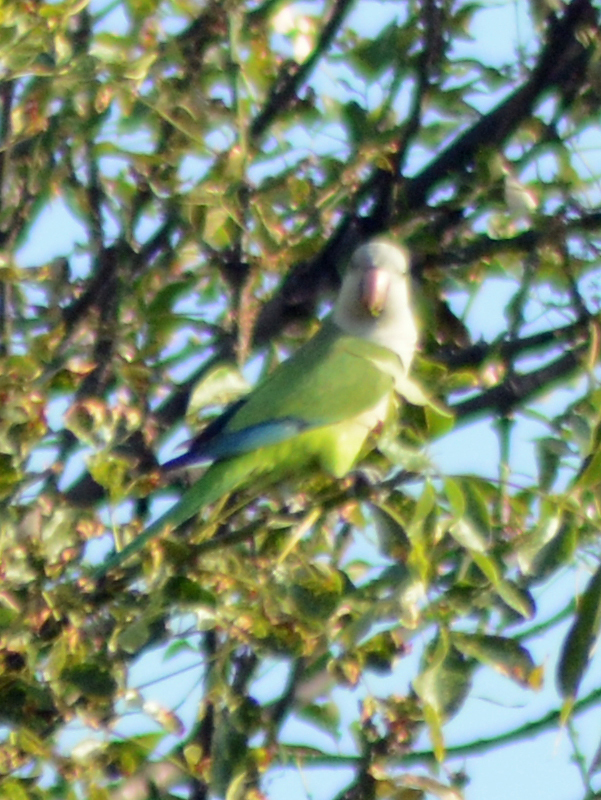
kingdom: Animalia
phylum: Chordata
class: Aves
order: Psittaciformes
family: Psittacidae
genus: Myiopsitta
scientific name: Myiopsitta monachus
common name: Monk parakeet
